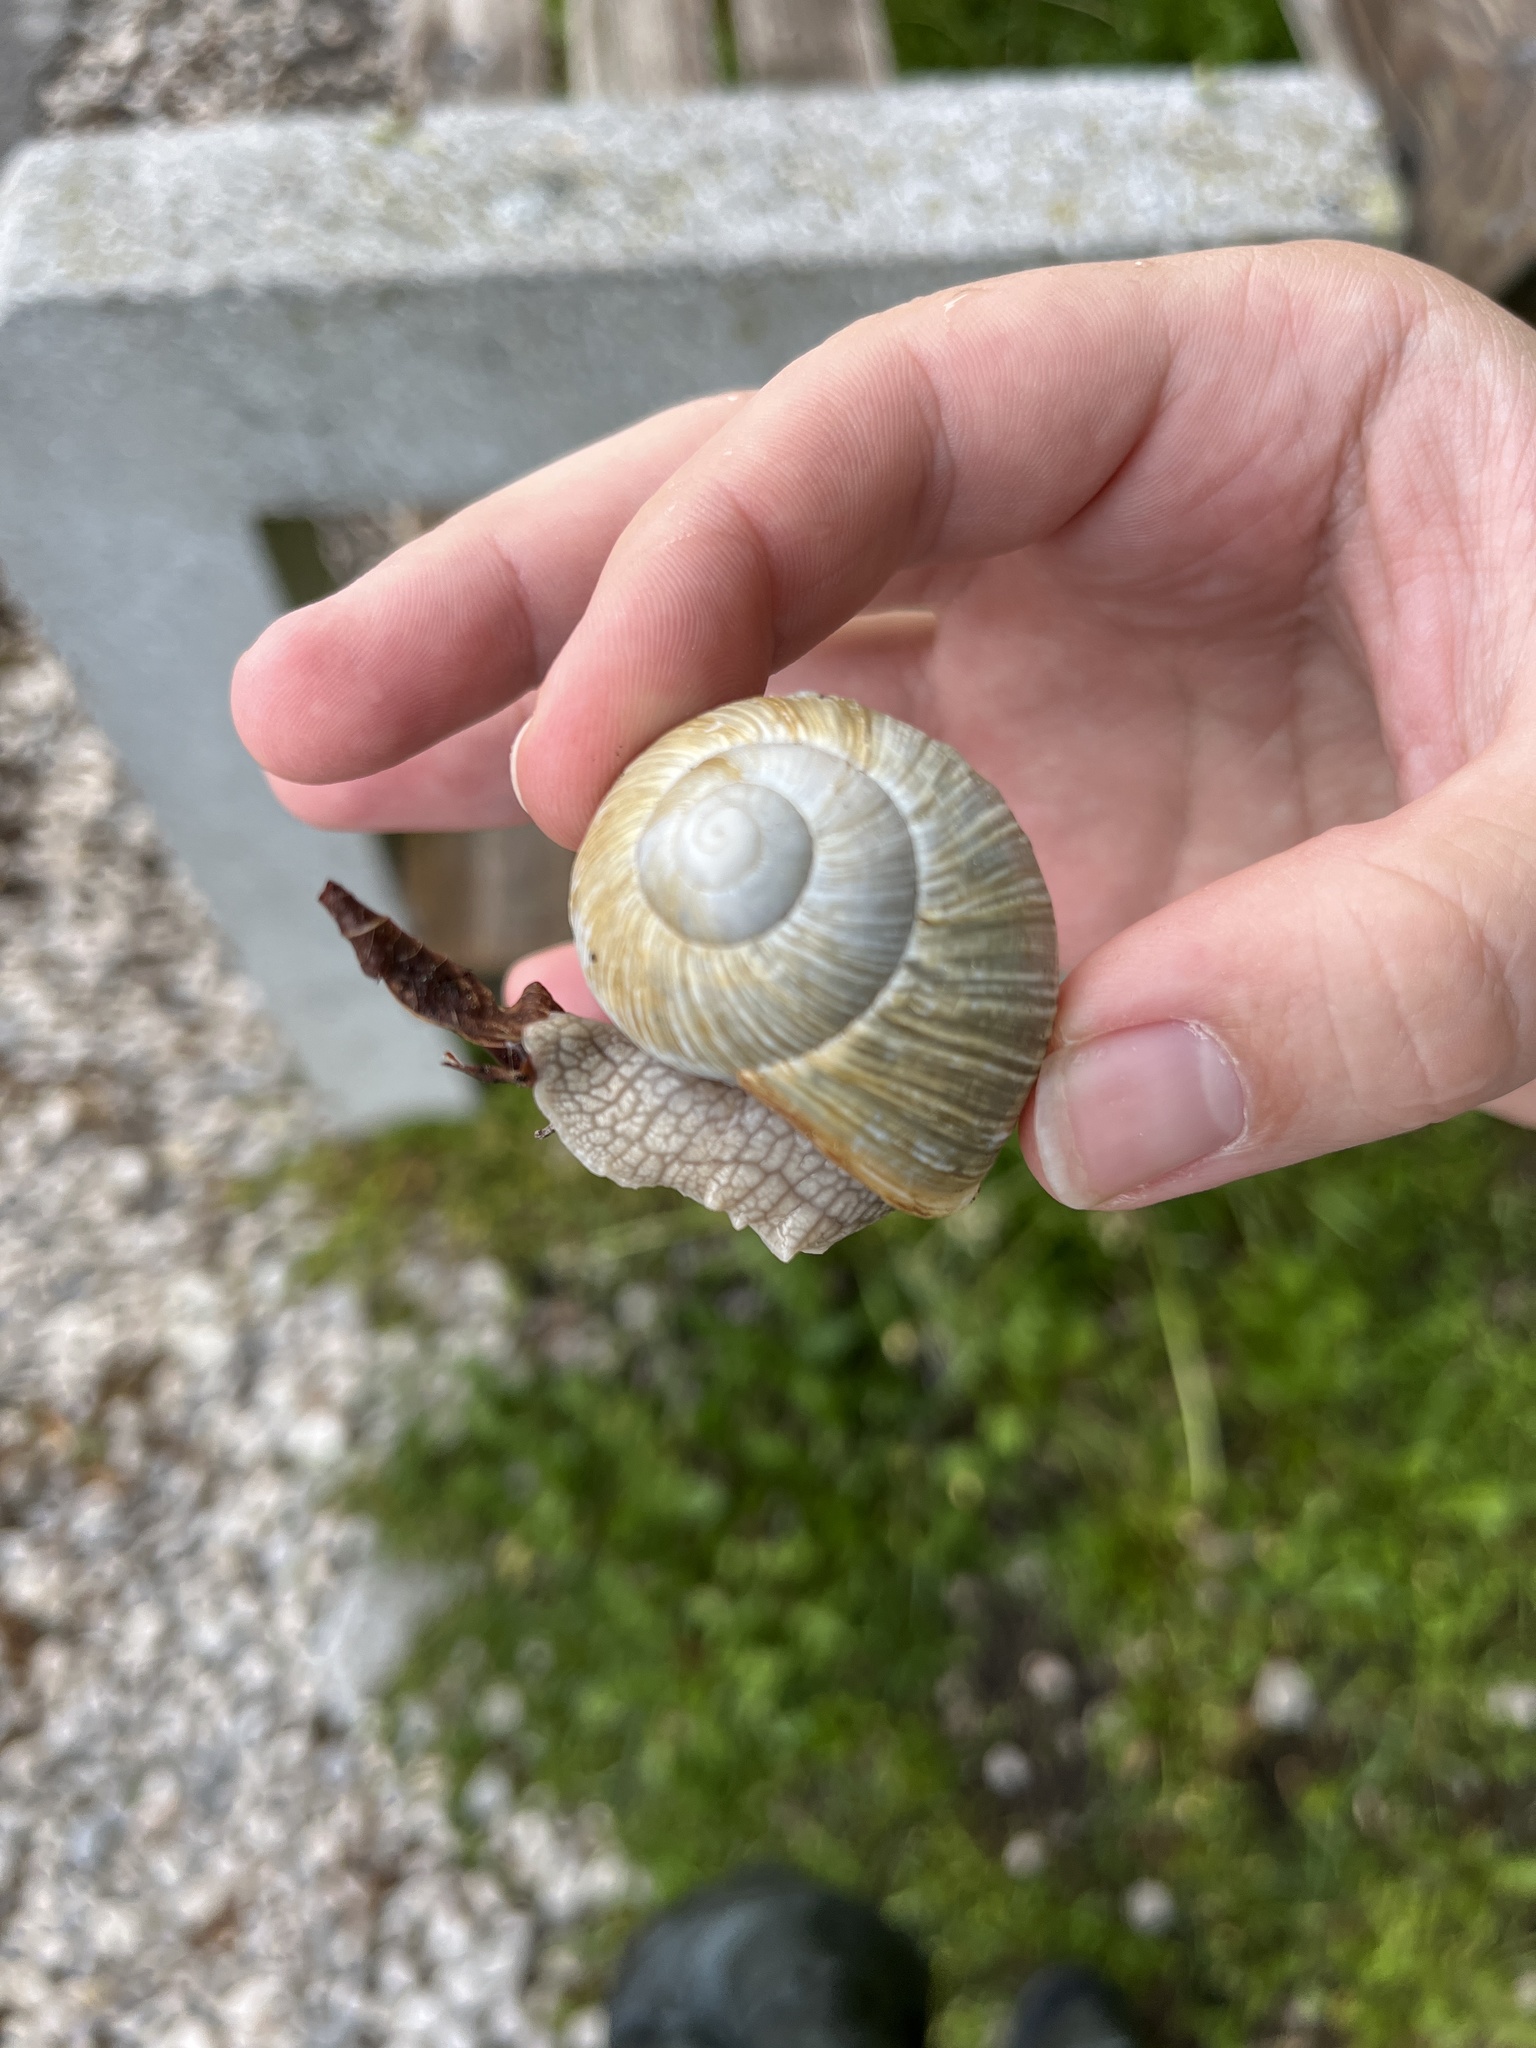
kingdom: Animalia
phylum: Mollusca
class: Gastropoda
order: Stylommatophora
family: Helicidae
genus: Helix
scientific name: Helix pomatia
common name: Roman snail
